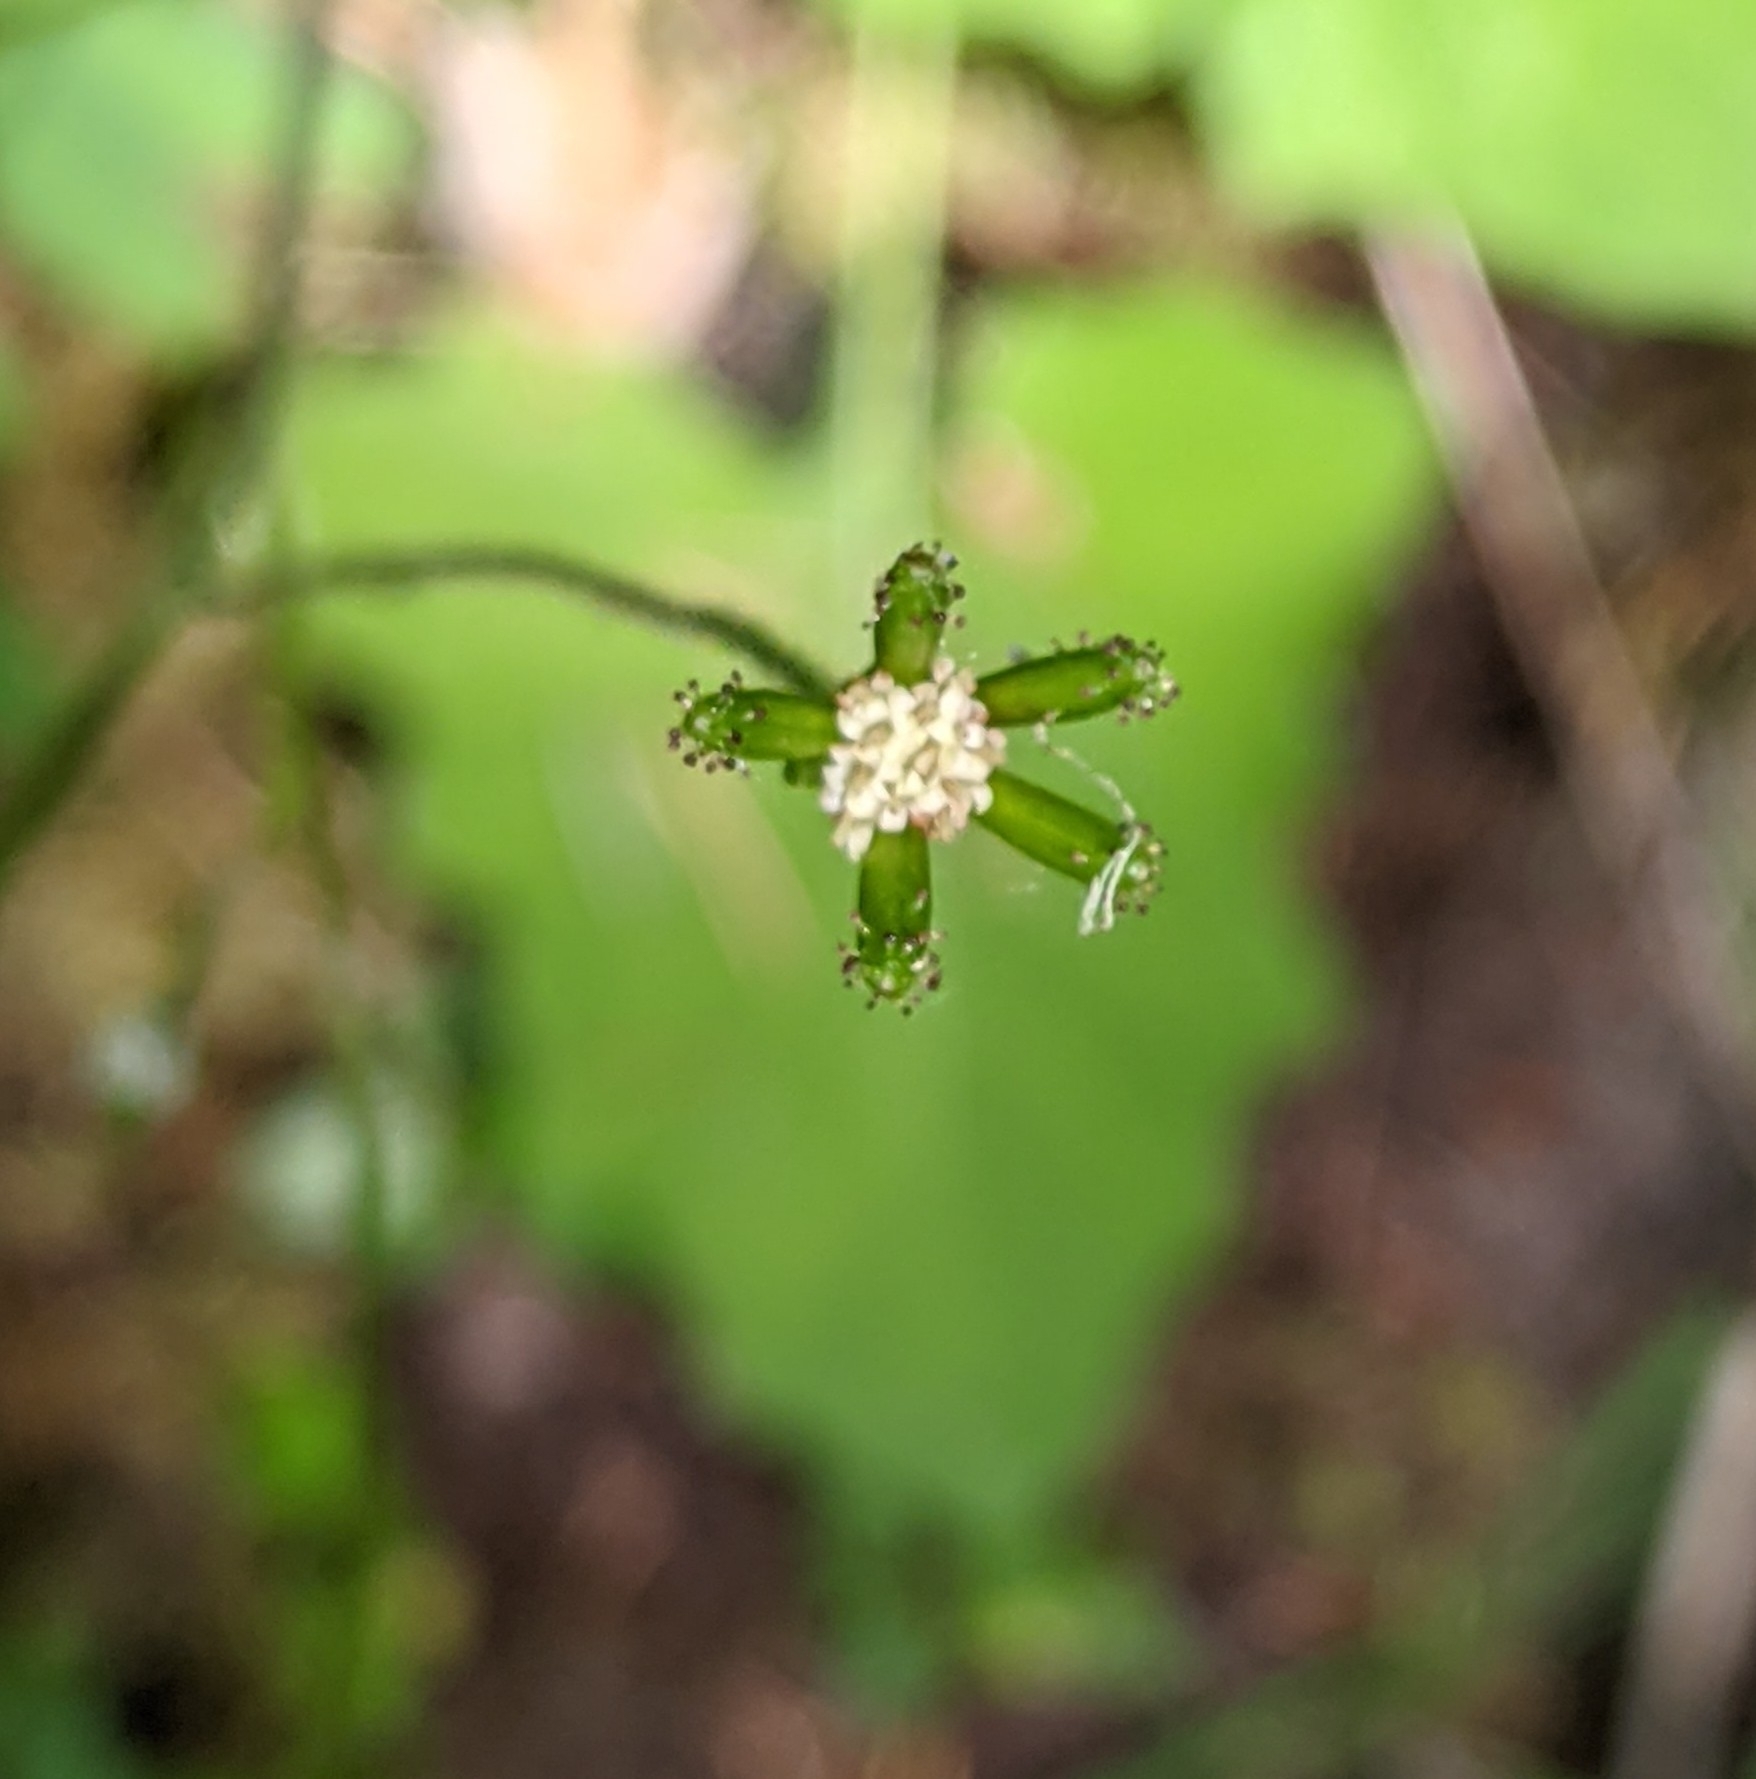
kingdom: Plantae
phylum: Tracheophyta
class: Magnoliopsida
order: Asterales
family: Asteraceae
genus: Adenocaulon
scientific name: Adenocaulon bicolor
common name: Trailplant
